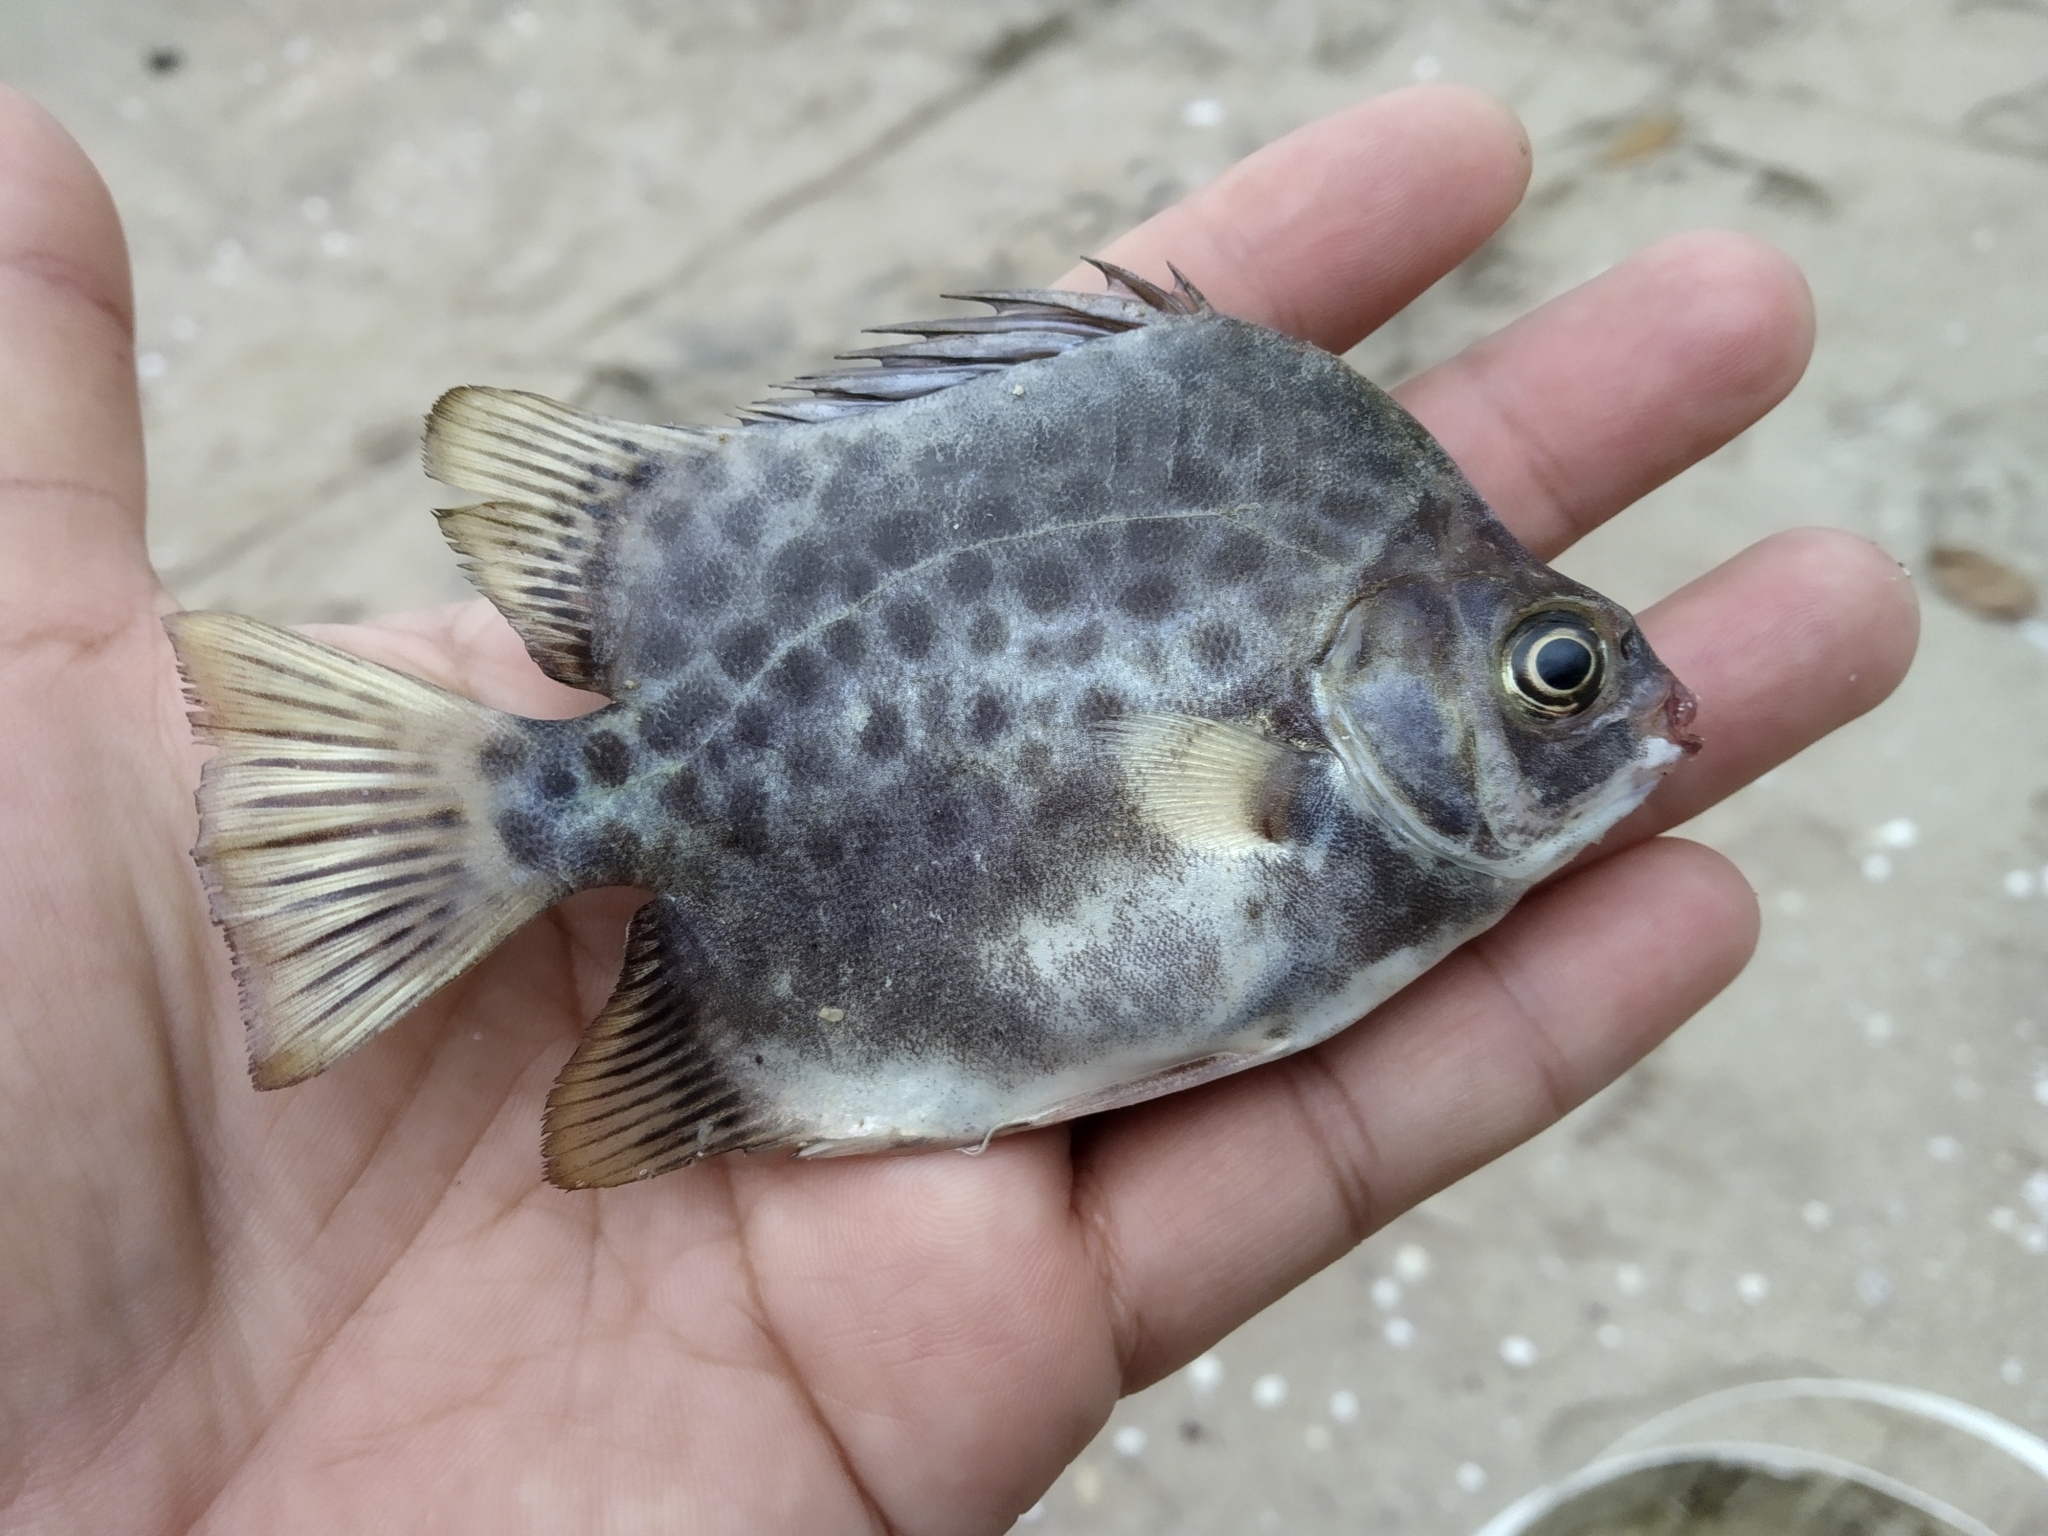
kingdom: Animalia
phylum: Chordata
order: Perciformes
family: Scatophagidae
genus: Scatophagus
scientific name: Scatophagus argus
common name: Spotted scat
